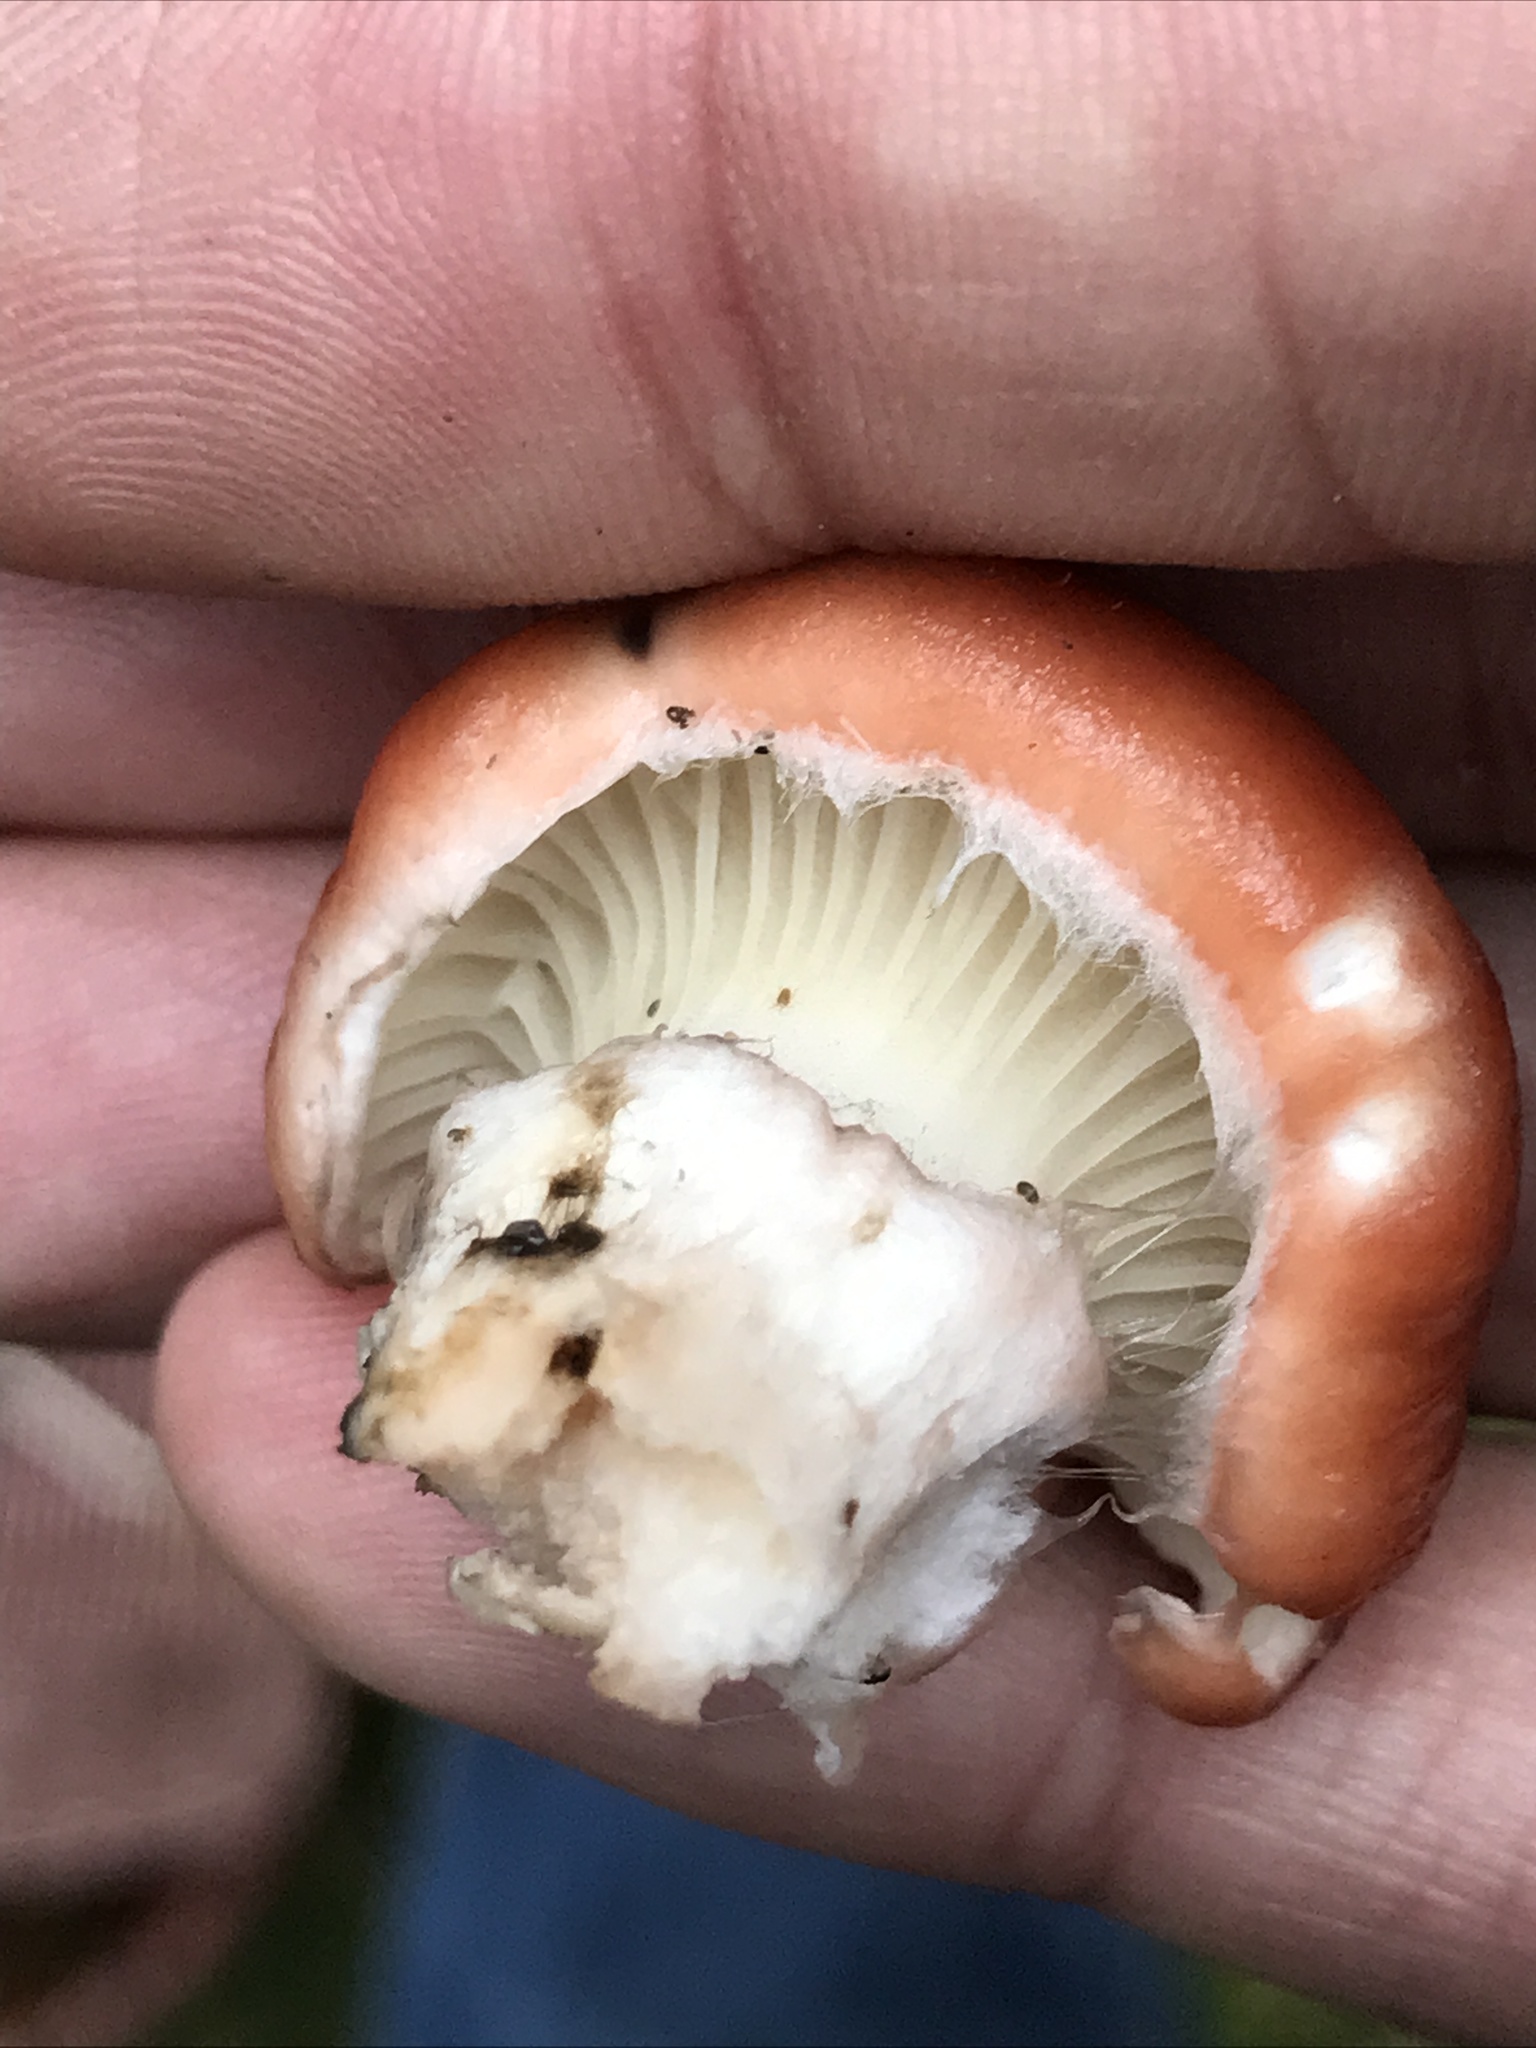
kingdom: Fungi
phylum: Basidiomycota
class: Agaricomycetes
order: Boletales
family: Gomphidiaceae
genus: Gomphidius
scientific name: Gomphidius roseus
